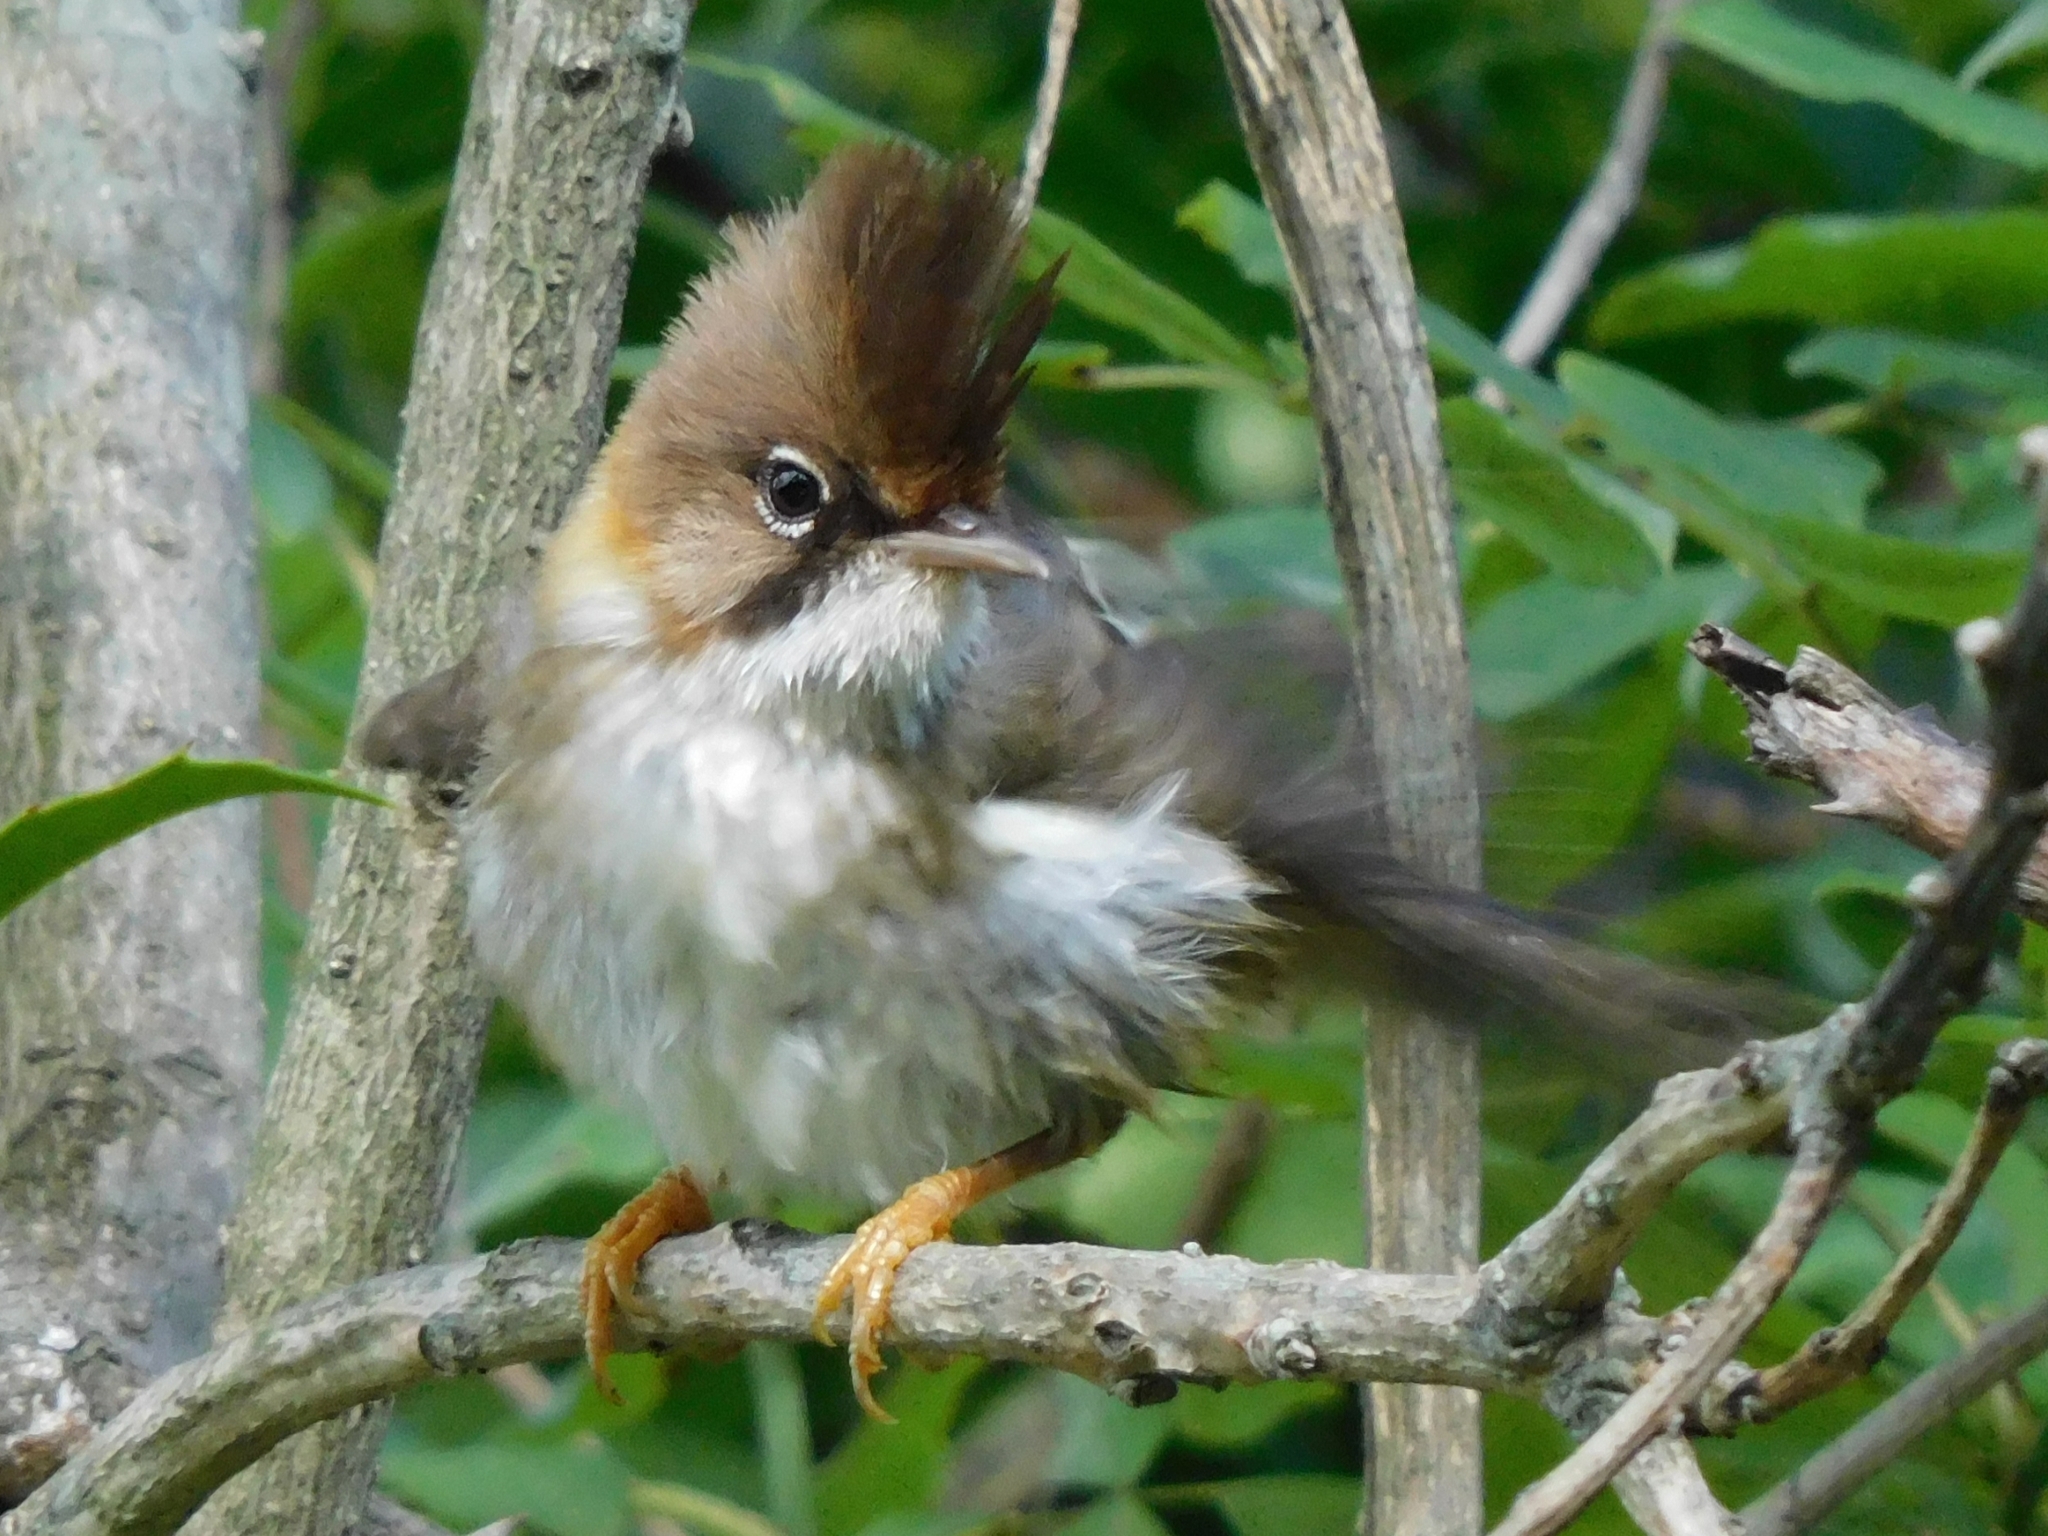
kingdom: Animalia
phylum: Chordata
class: Aves
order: Passeriformes
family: Zosteropidae
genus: Yuhina
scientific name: Yuhina flavicollis
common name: Whiskered yuhina
